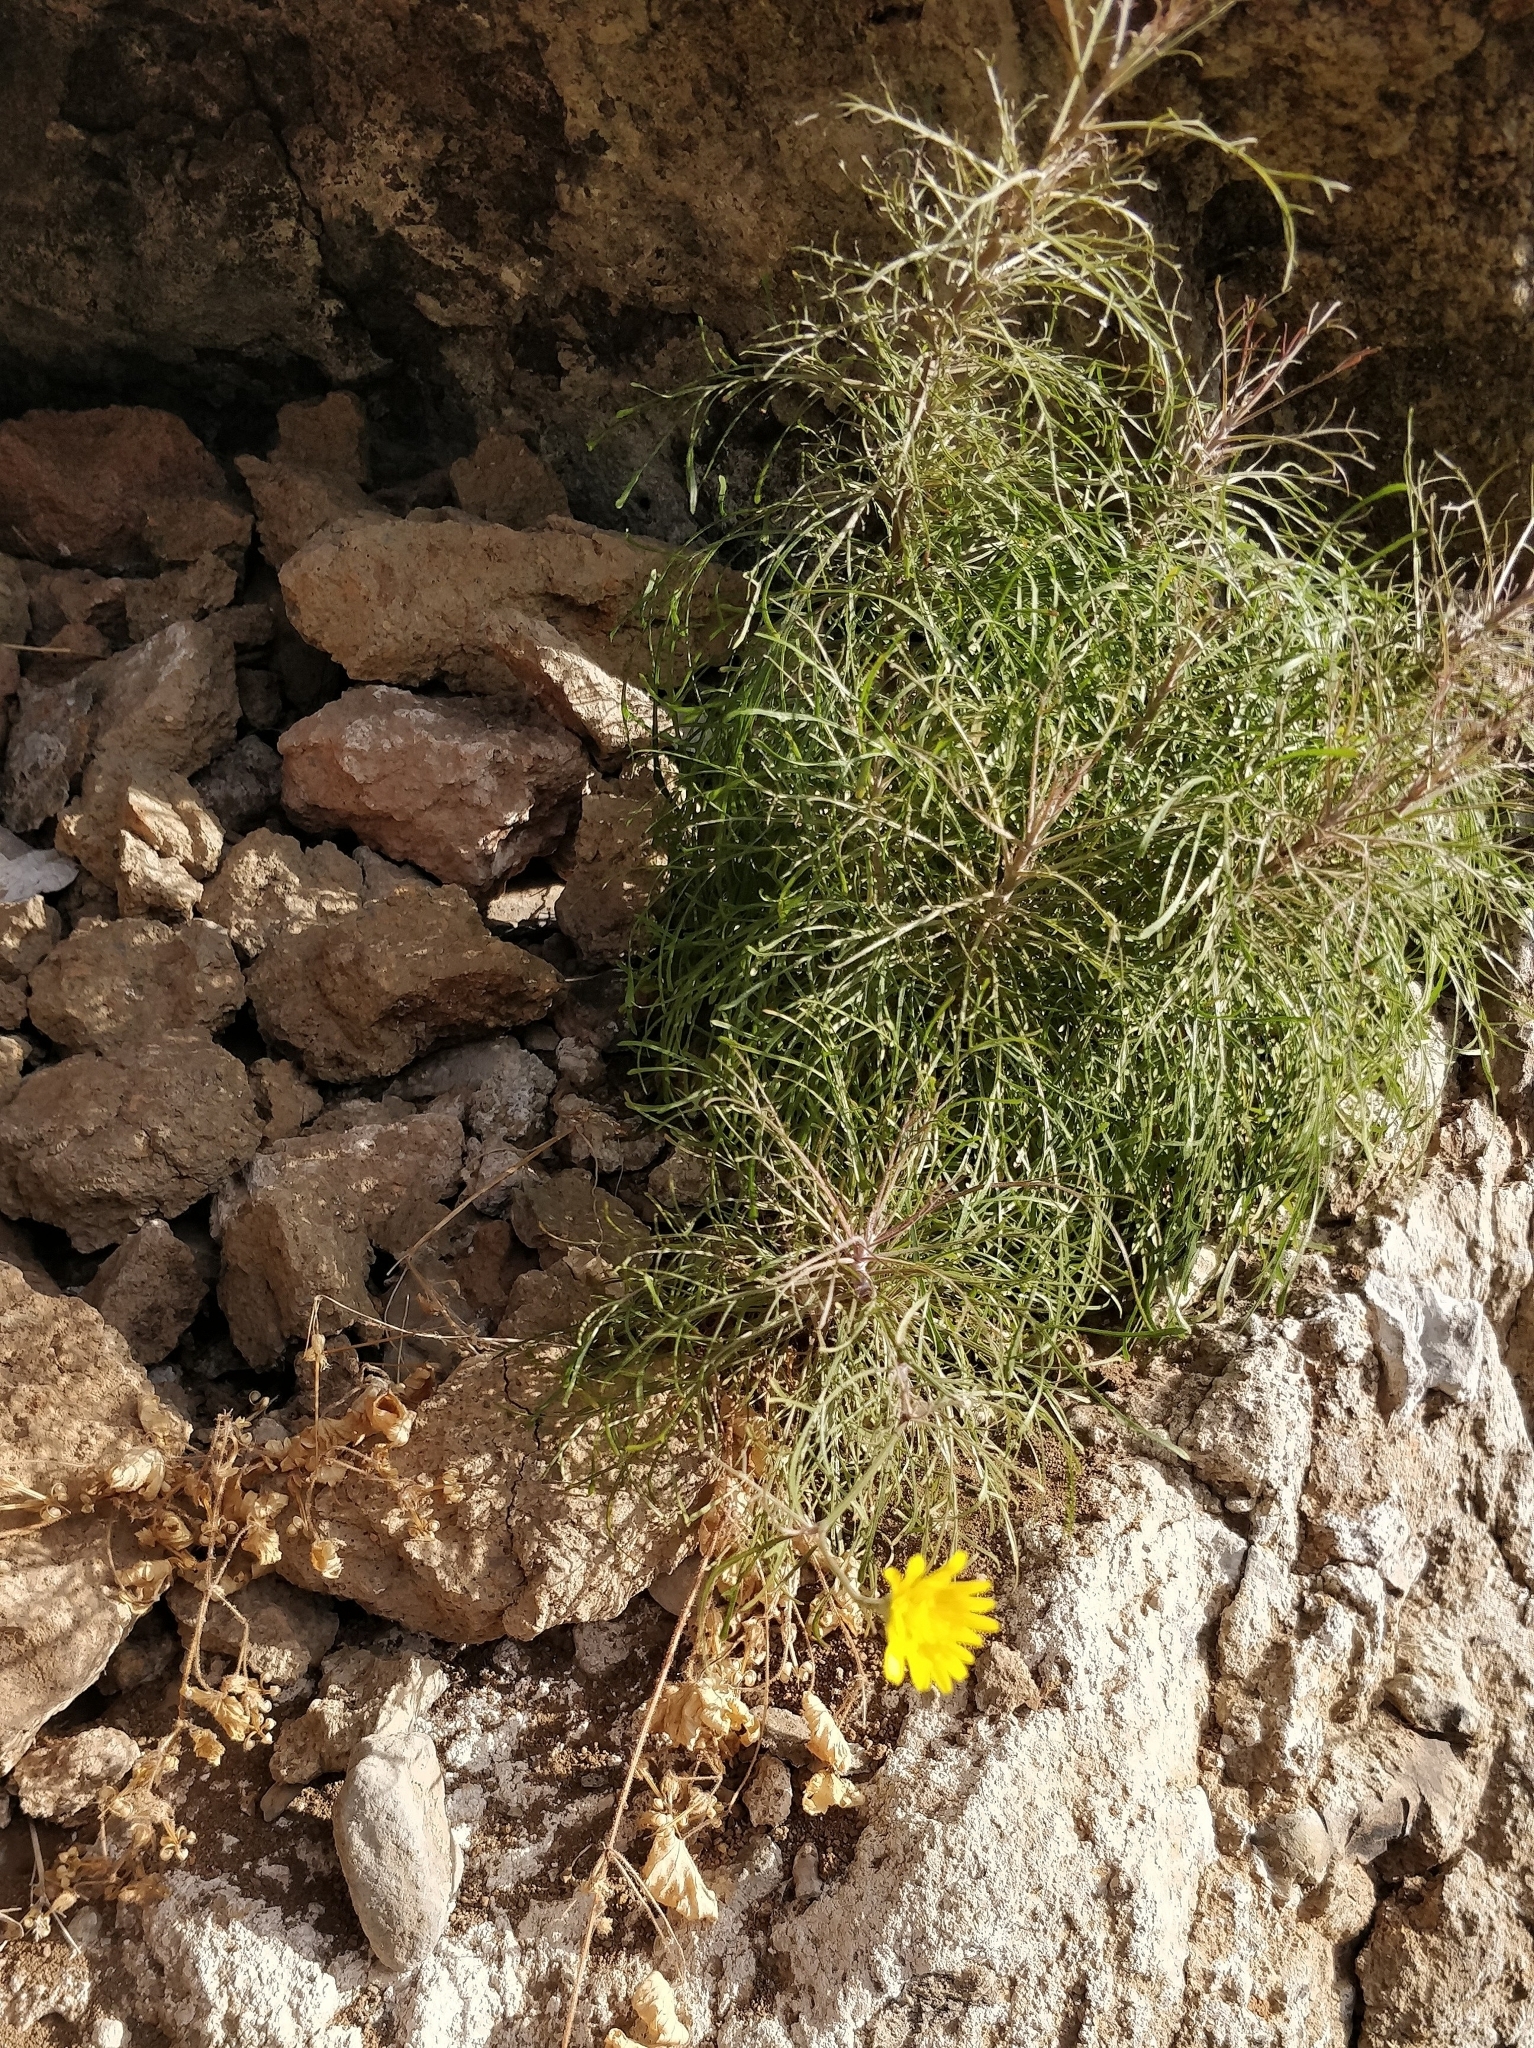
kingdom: Plantae
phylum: Tracheophyta
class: Magnoliopsida
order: Asterales
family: Asteraceae
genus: Tolpis
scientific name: Tolpis succulenta
